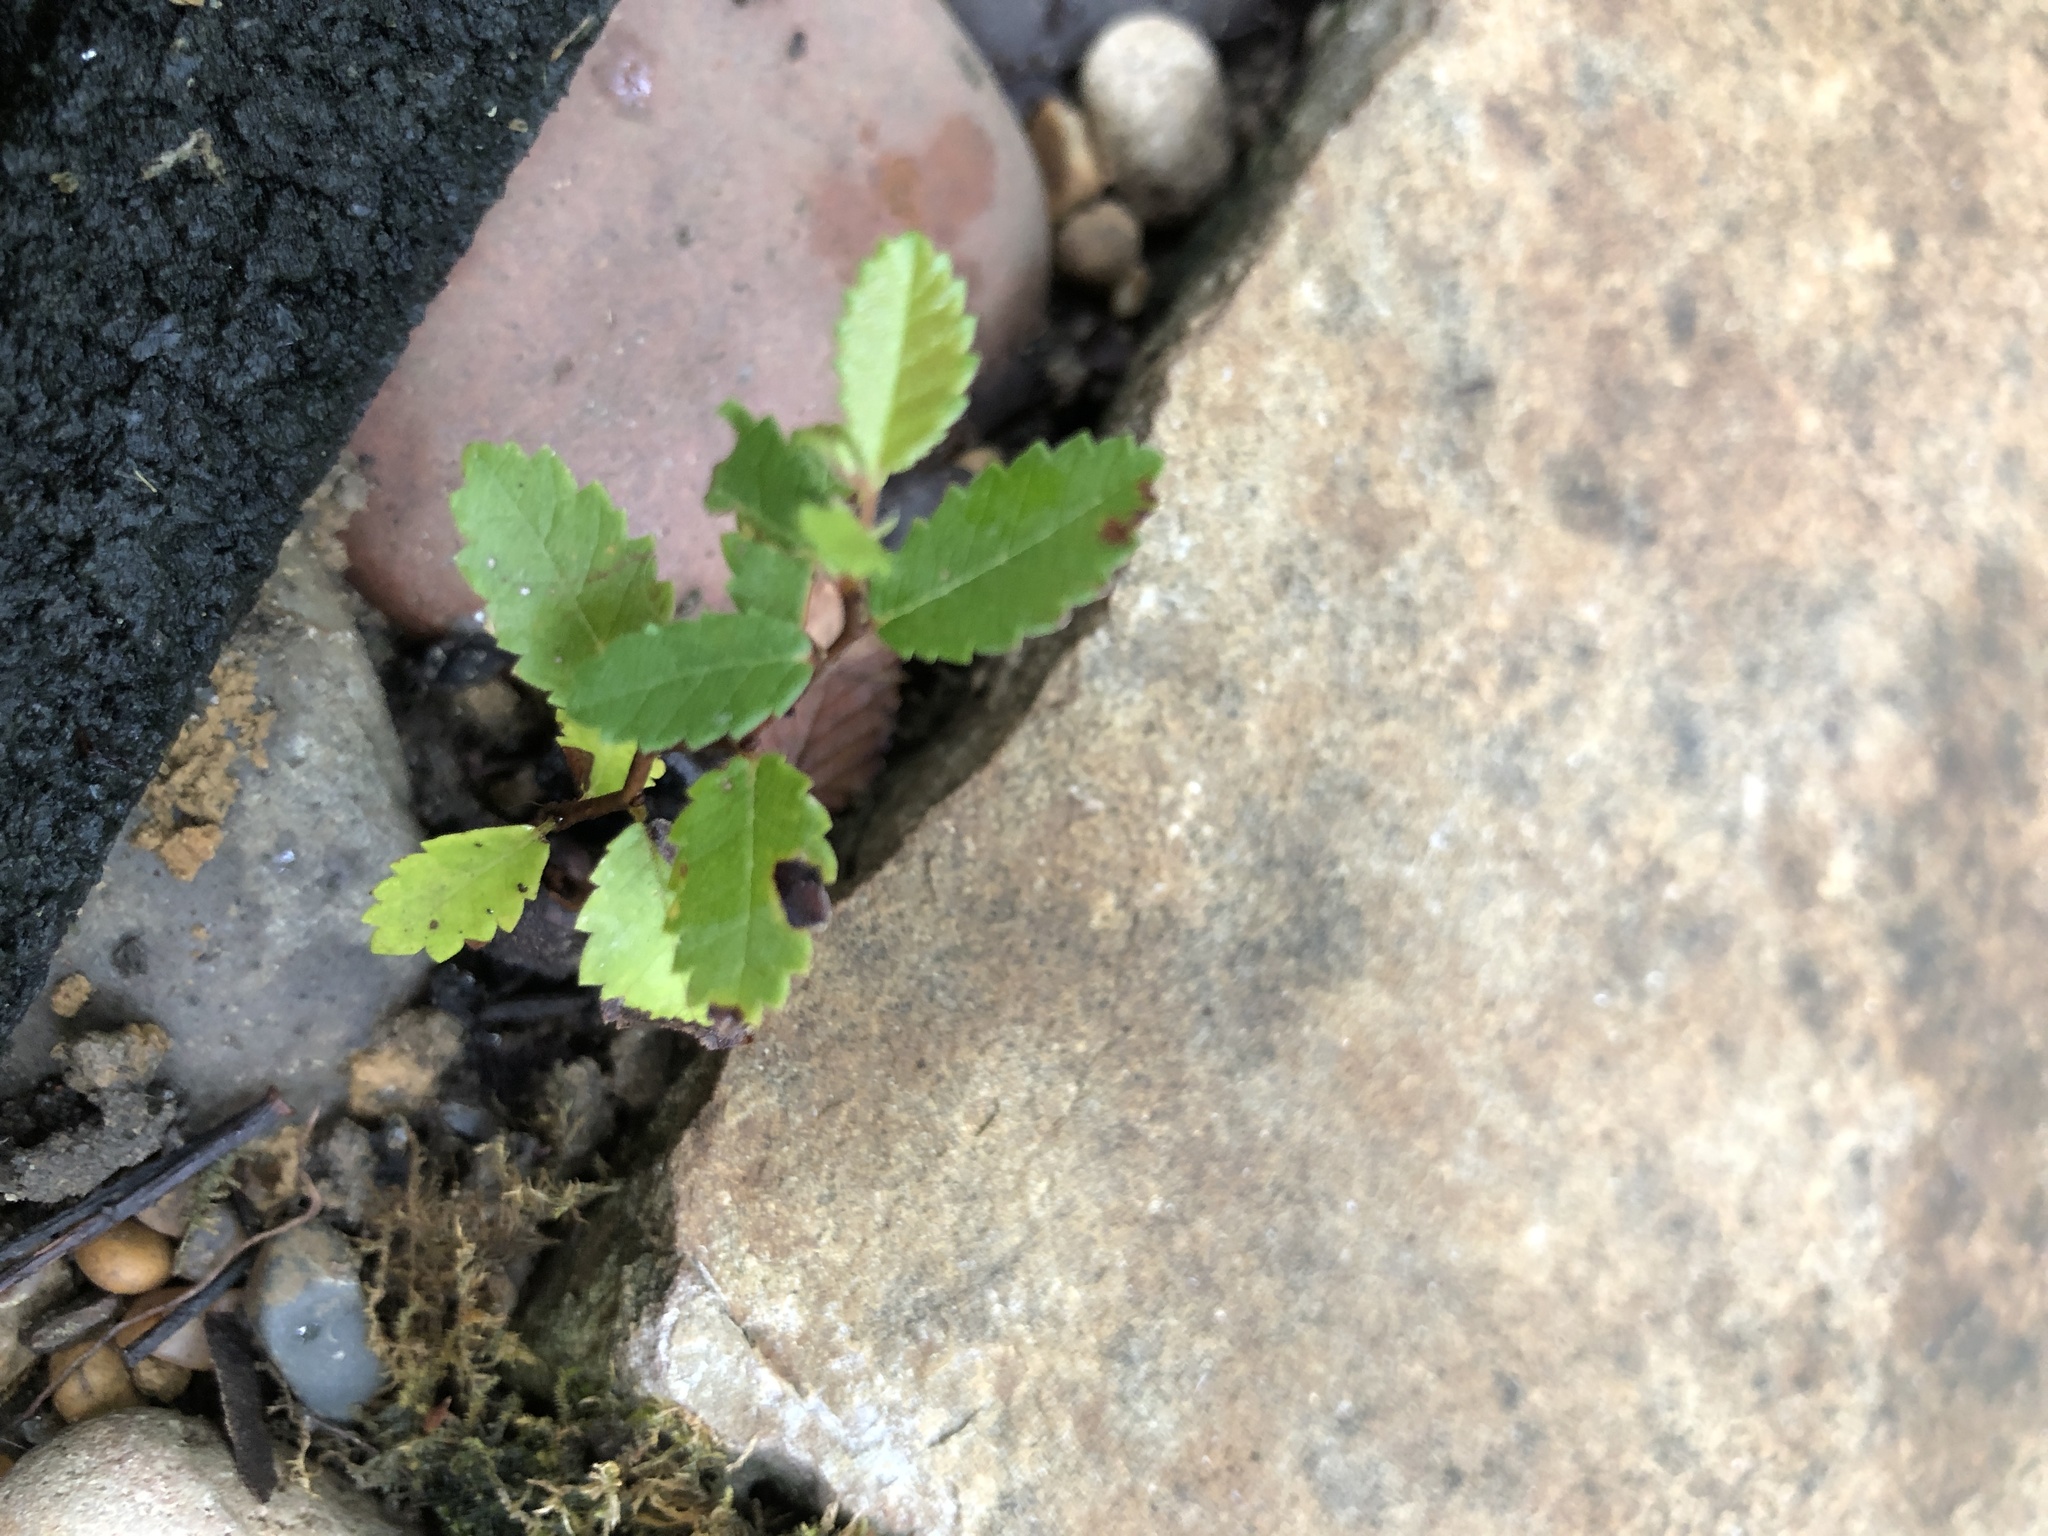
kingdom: Plantae
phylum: Tracheophyta
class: Magnoliopsida
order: Rosales
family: Ulmaceae
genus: Ulmus
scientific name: Ulmus crassifolia
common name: Basket elm
